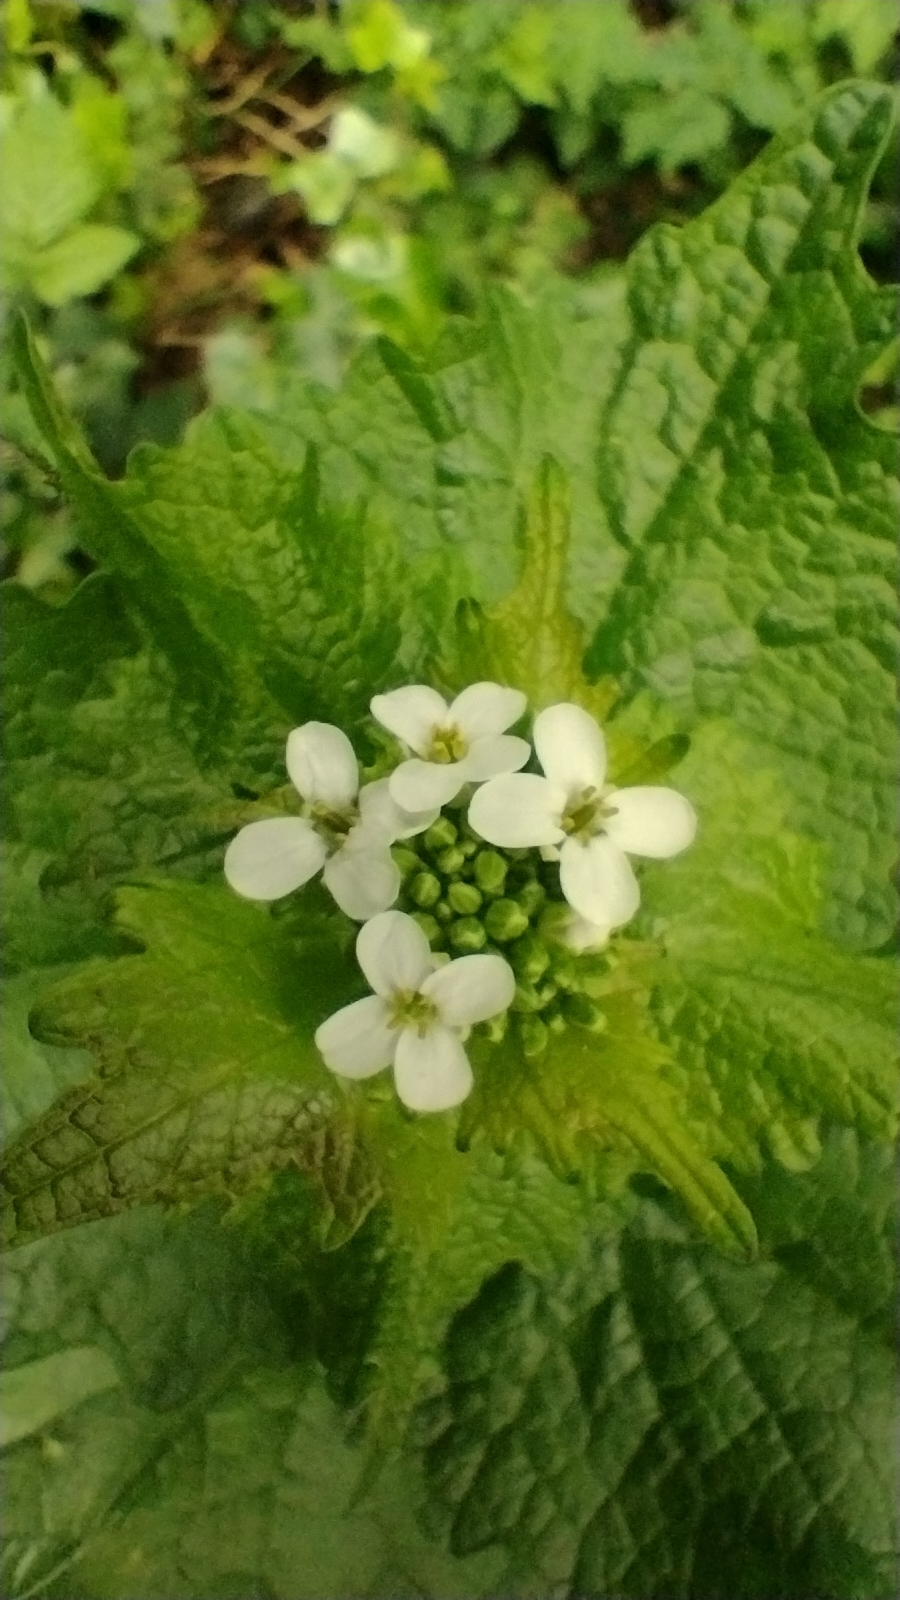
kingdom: Plantae
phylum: Tracheophyta
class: Magnoliopsida
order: Brassicales
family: Brassicaceae
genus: Alliaria
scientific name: Alliaria petiolata
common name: Garlic mustard
